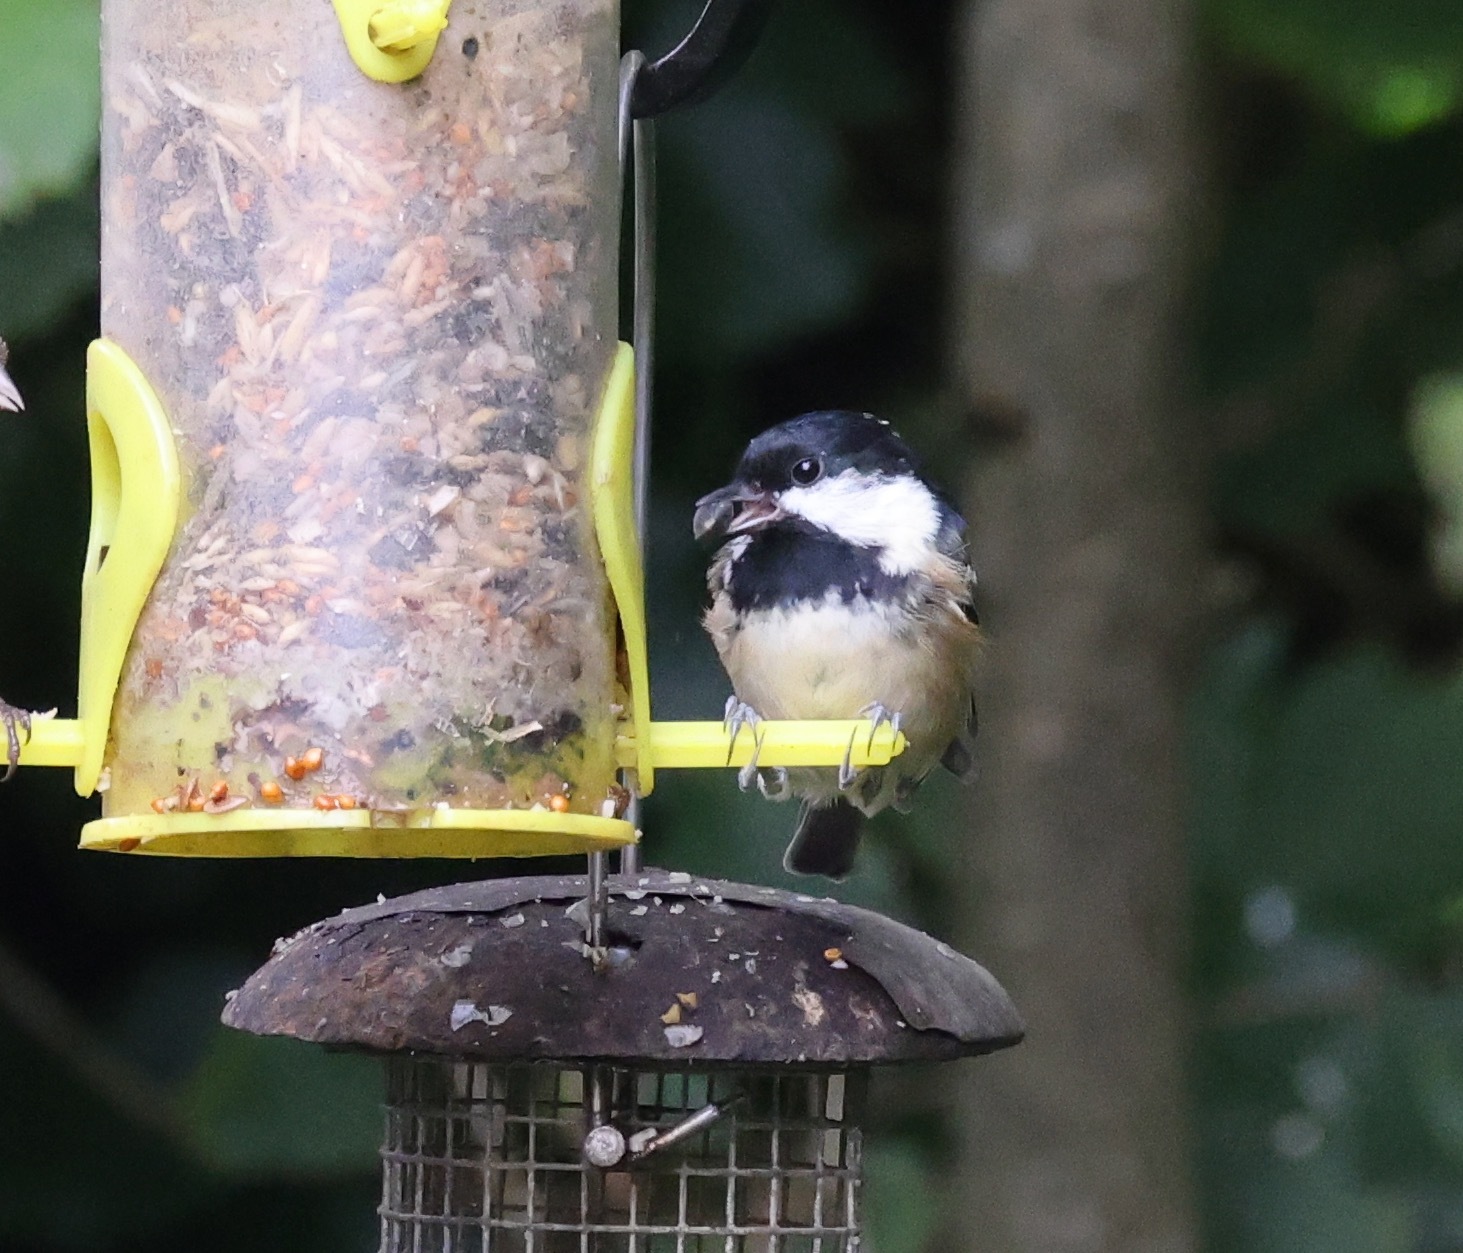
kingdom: Animalia
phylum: Chordata
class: Aves
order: Passeriformes
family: Paridae
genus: Periparus
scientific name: Periparus ater
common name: Coal tit
